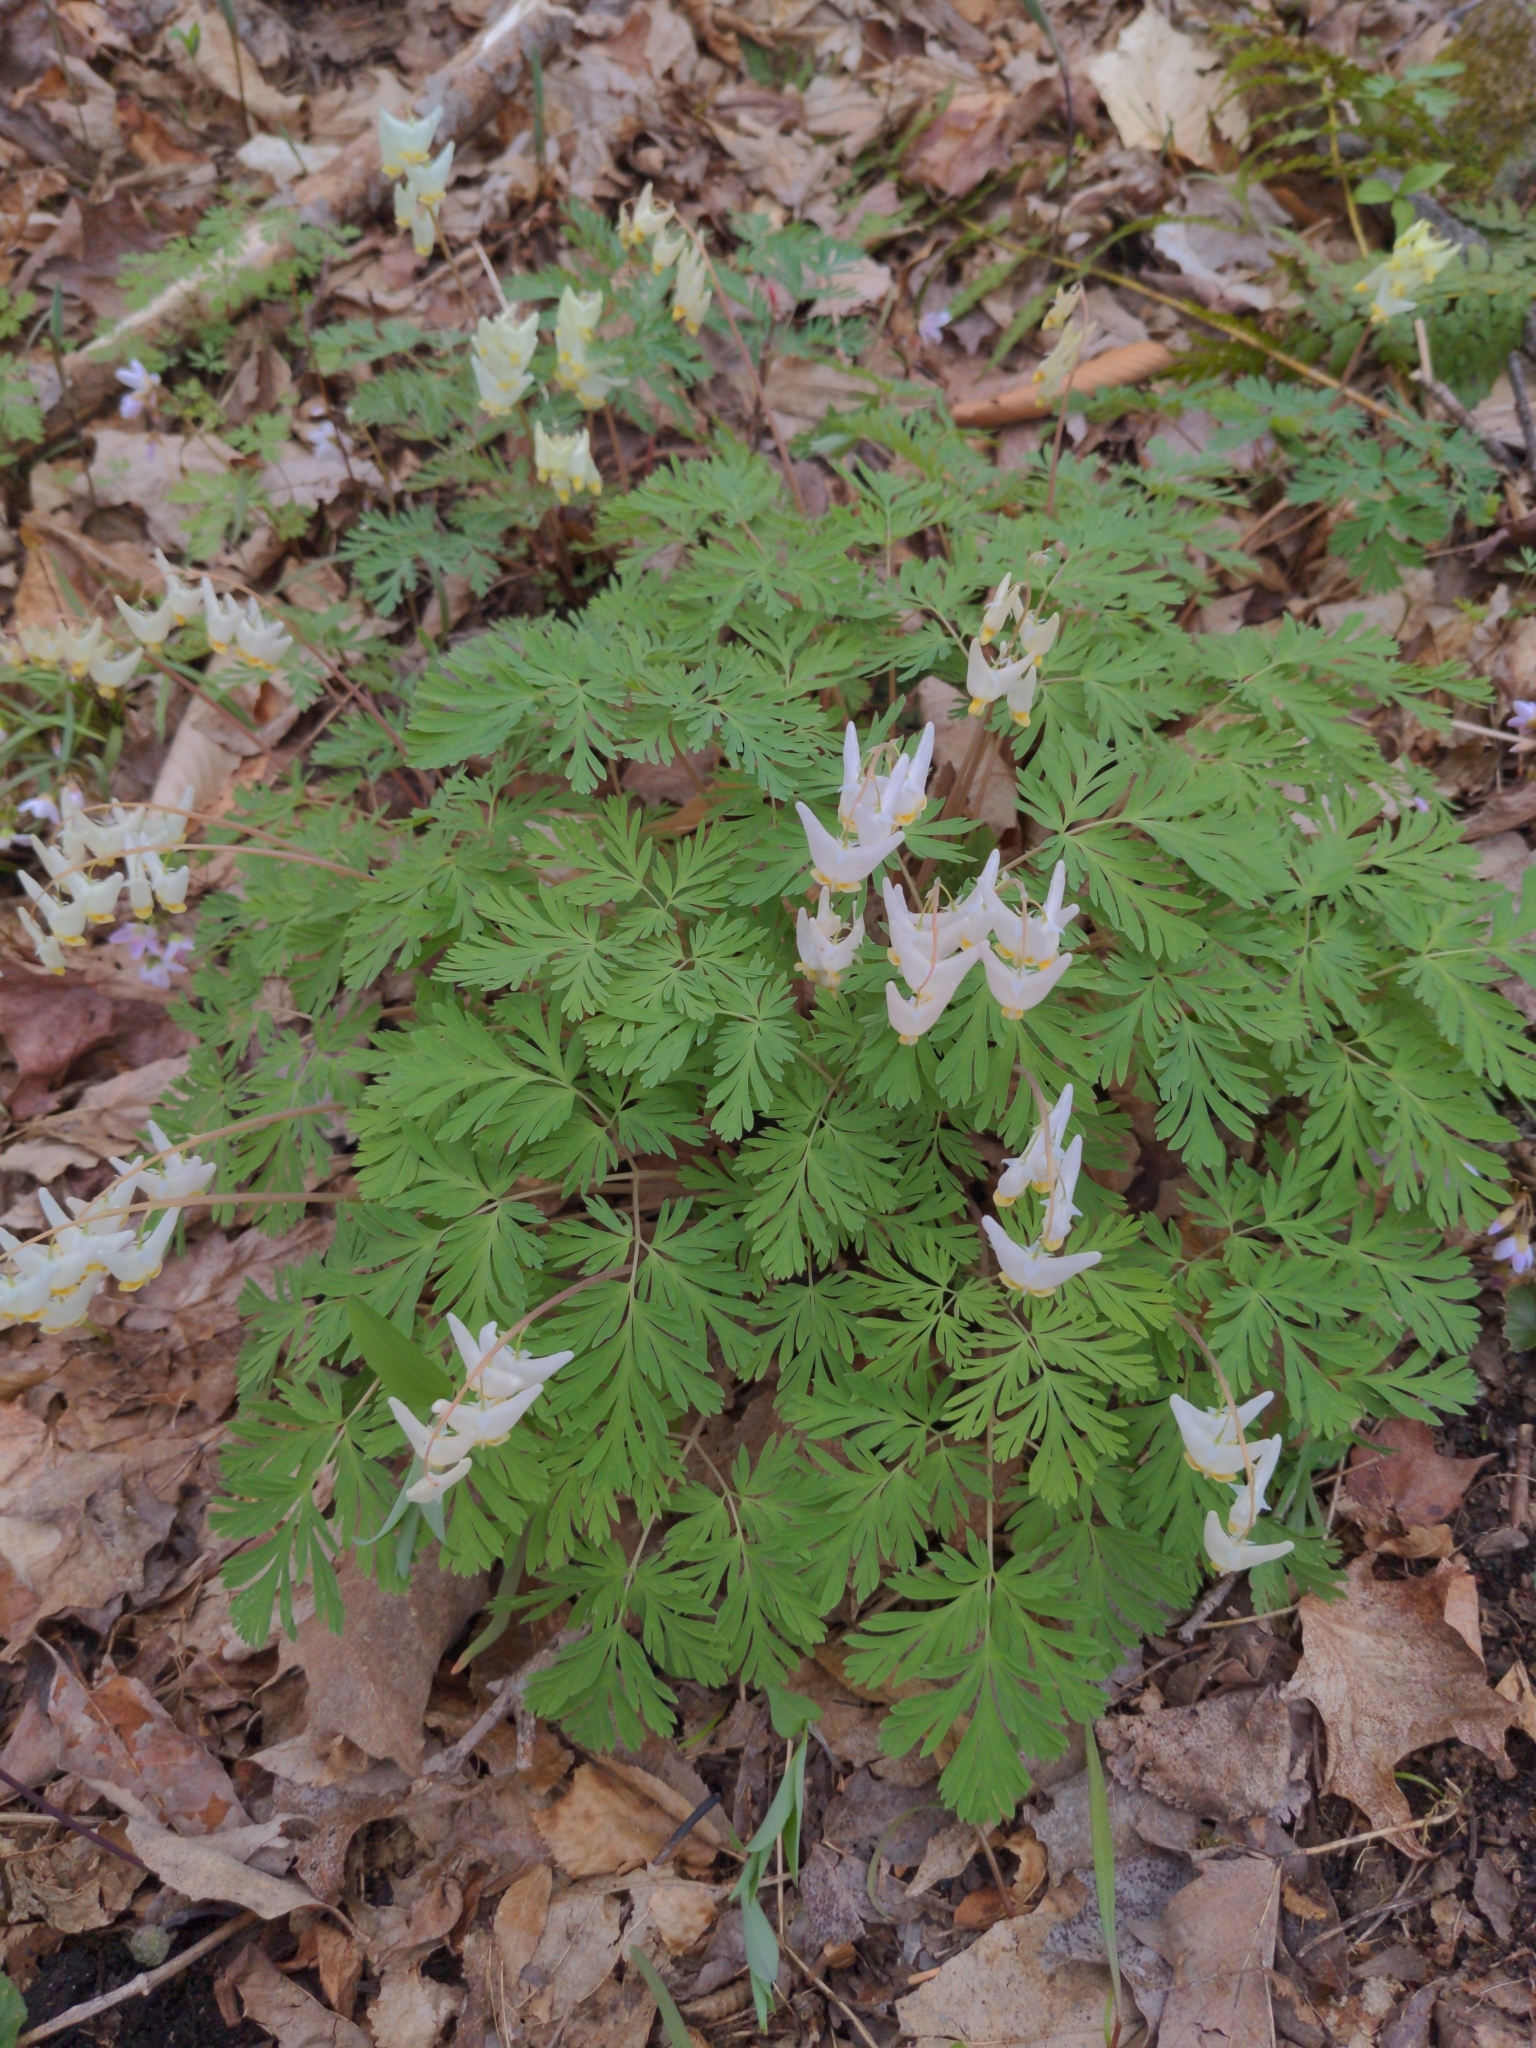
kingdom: Plantae
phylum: Tracheophyta
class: Magnoliopsida
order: Ranunculales
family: Papaveraceae
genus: Dicentra
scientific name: Dicentra cucullaria
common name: Dutchman's breeches
